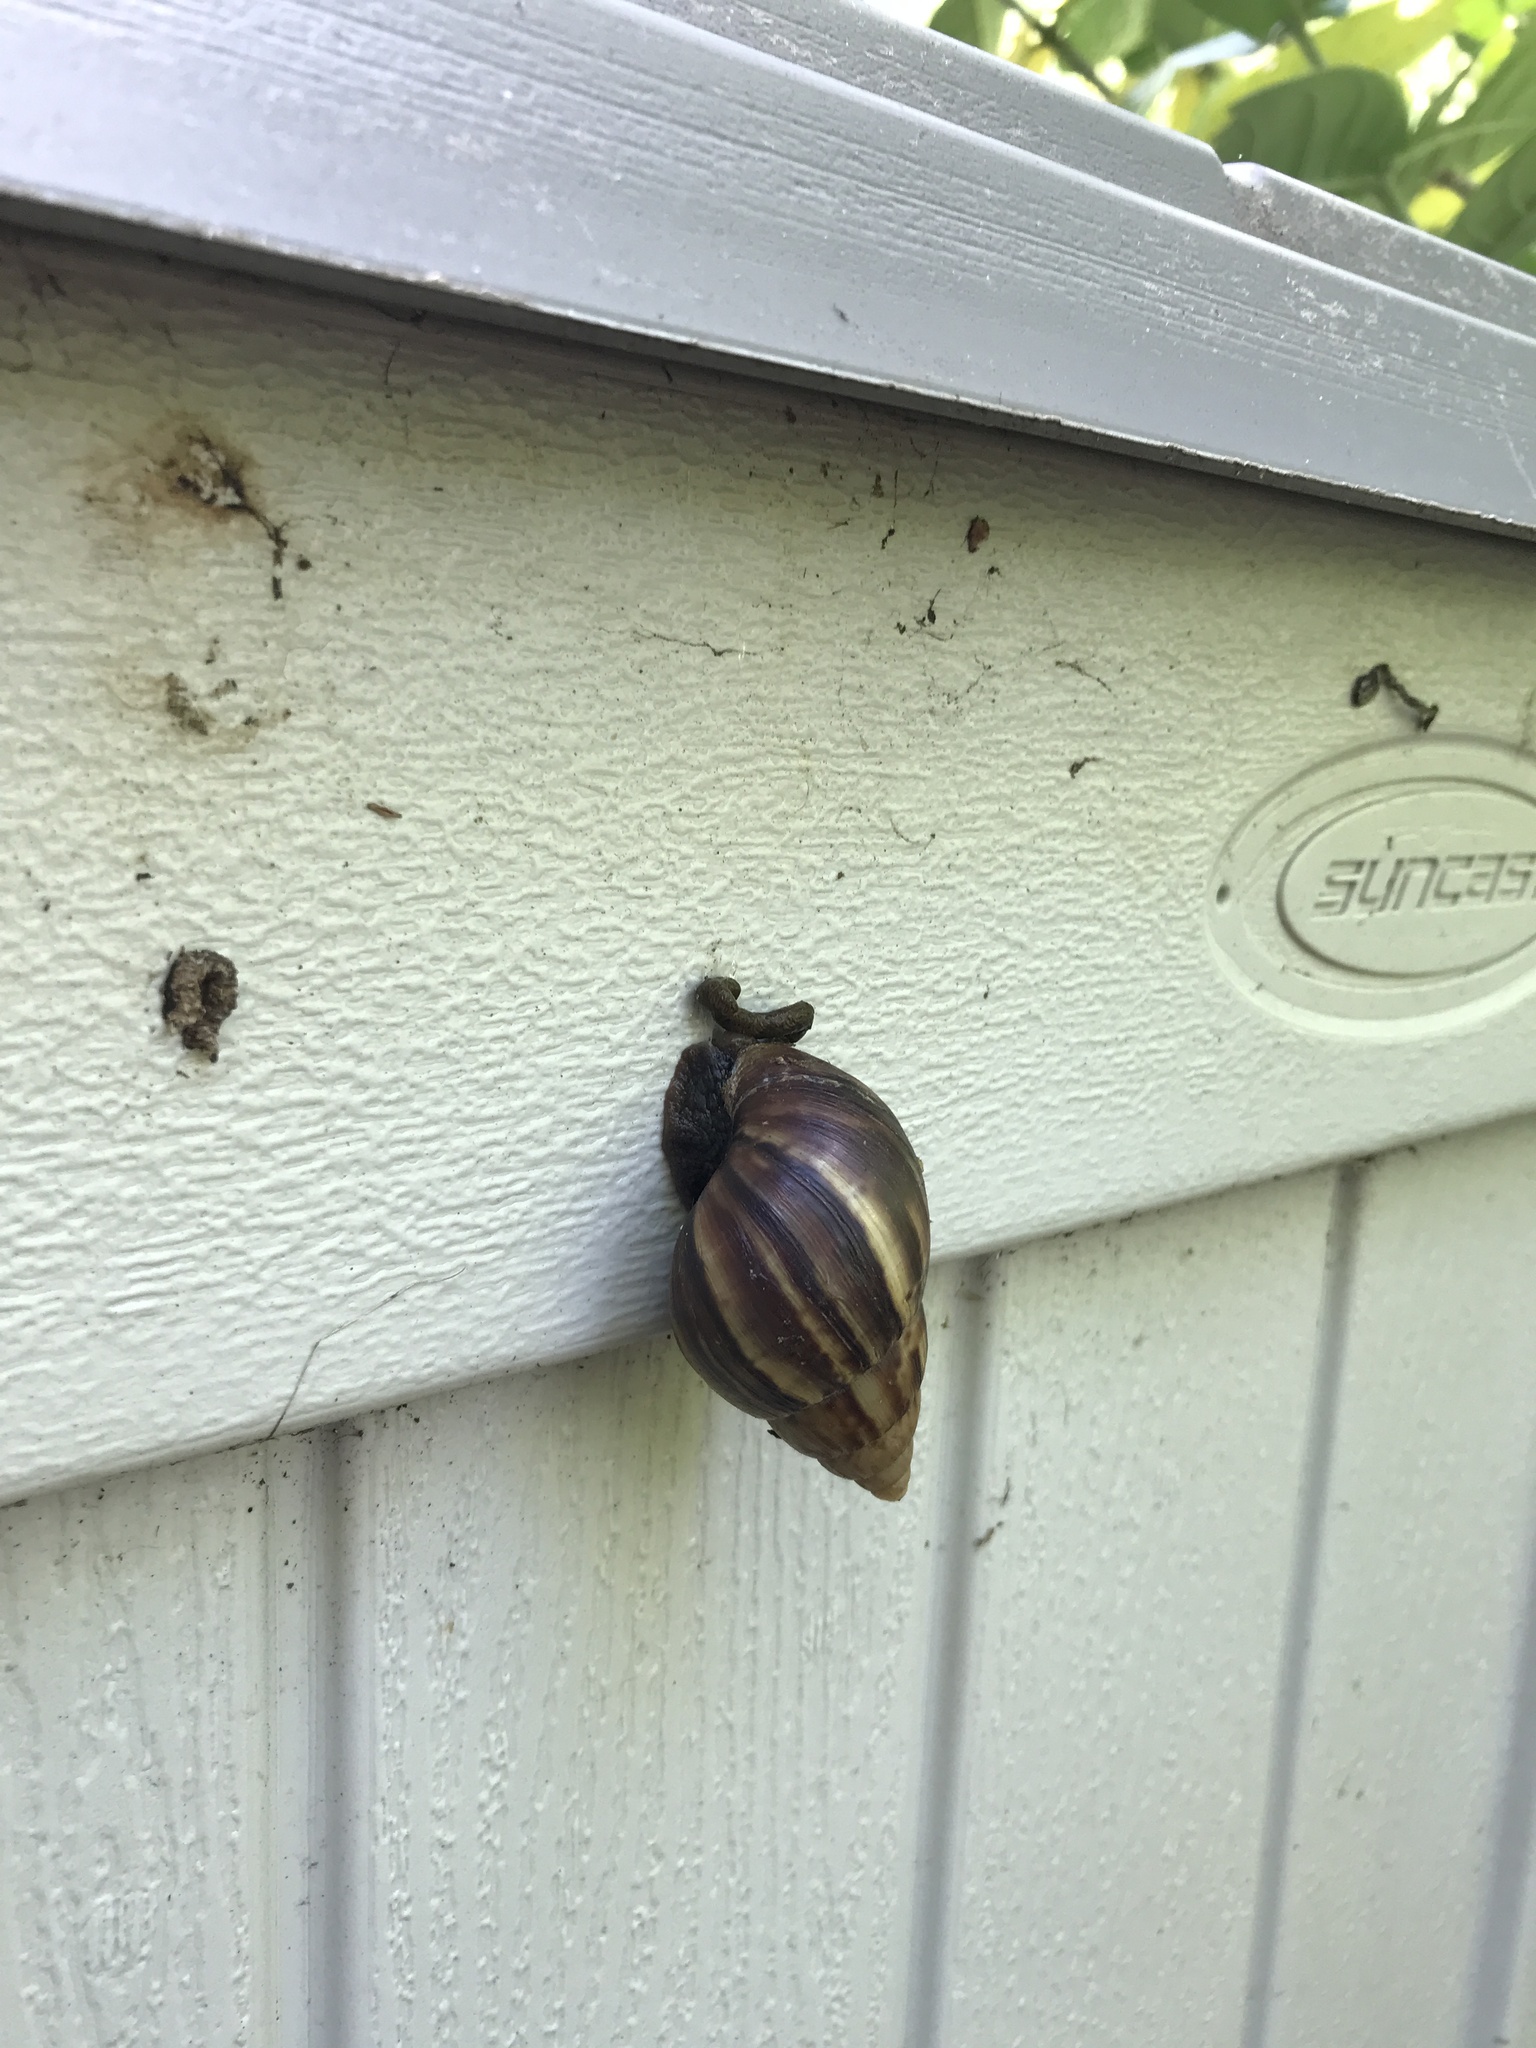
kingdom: Animalia
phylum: Mollusca
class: Gastropoda
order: Stylommatophora
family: Achatinidae
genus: Lissachatina
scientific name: Lissachatina fulica
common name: Giant african snail
